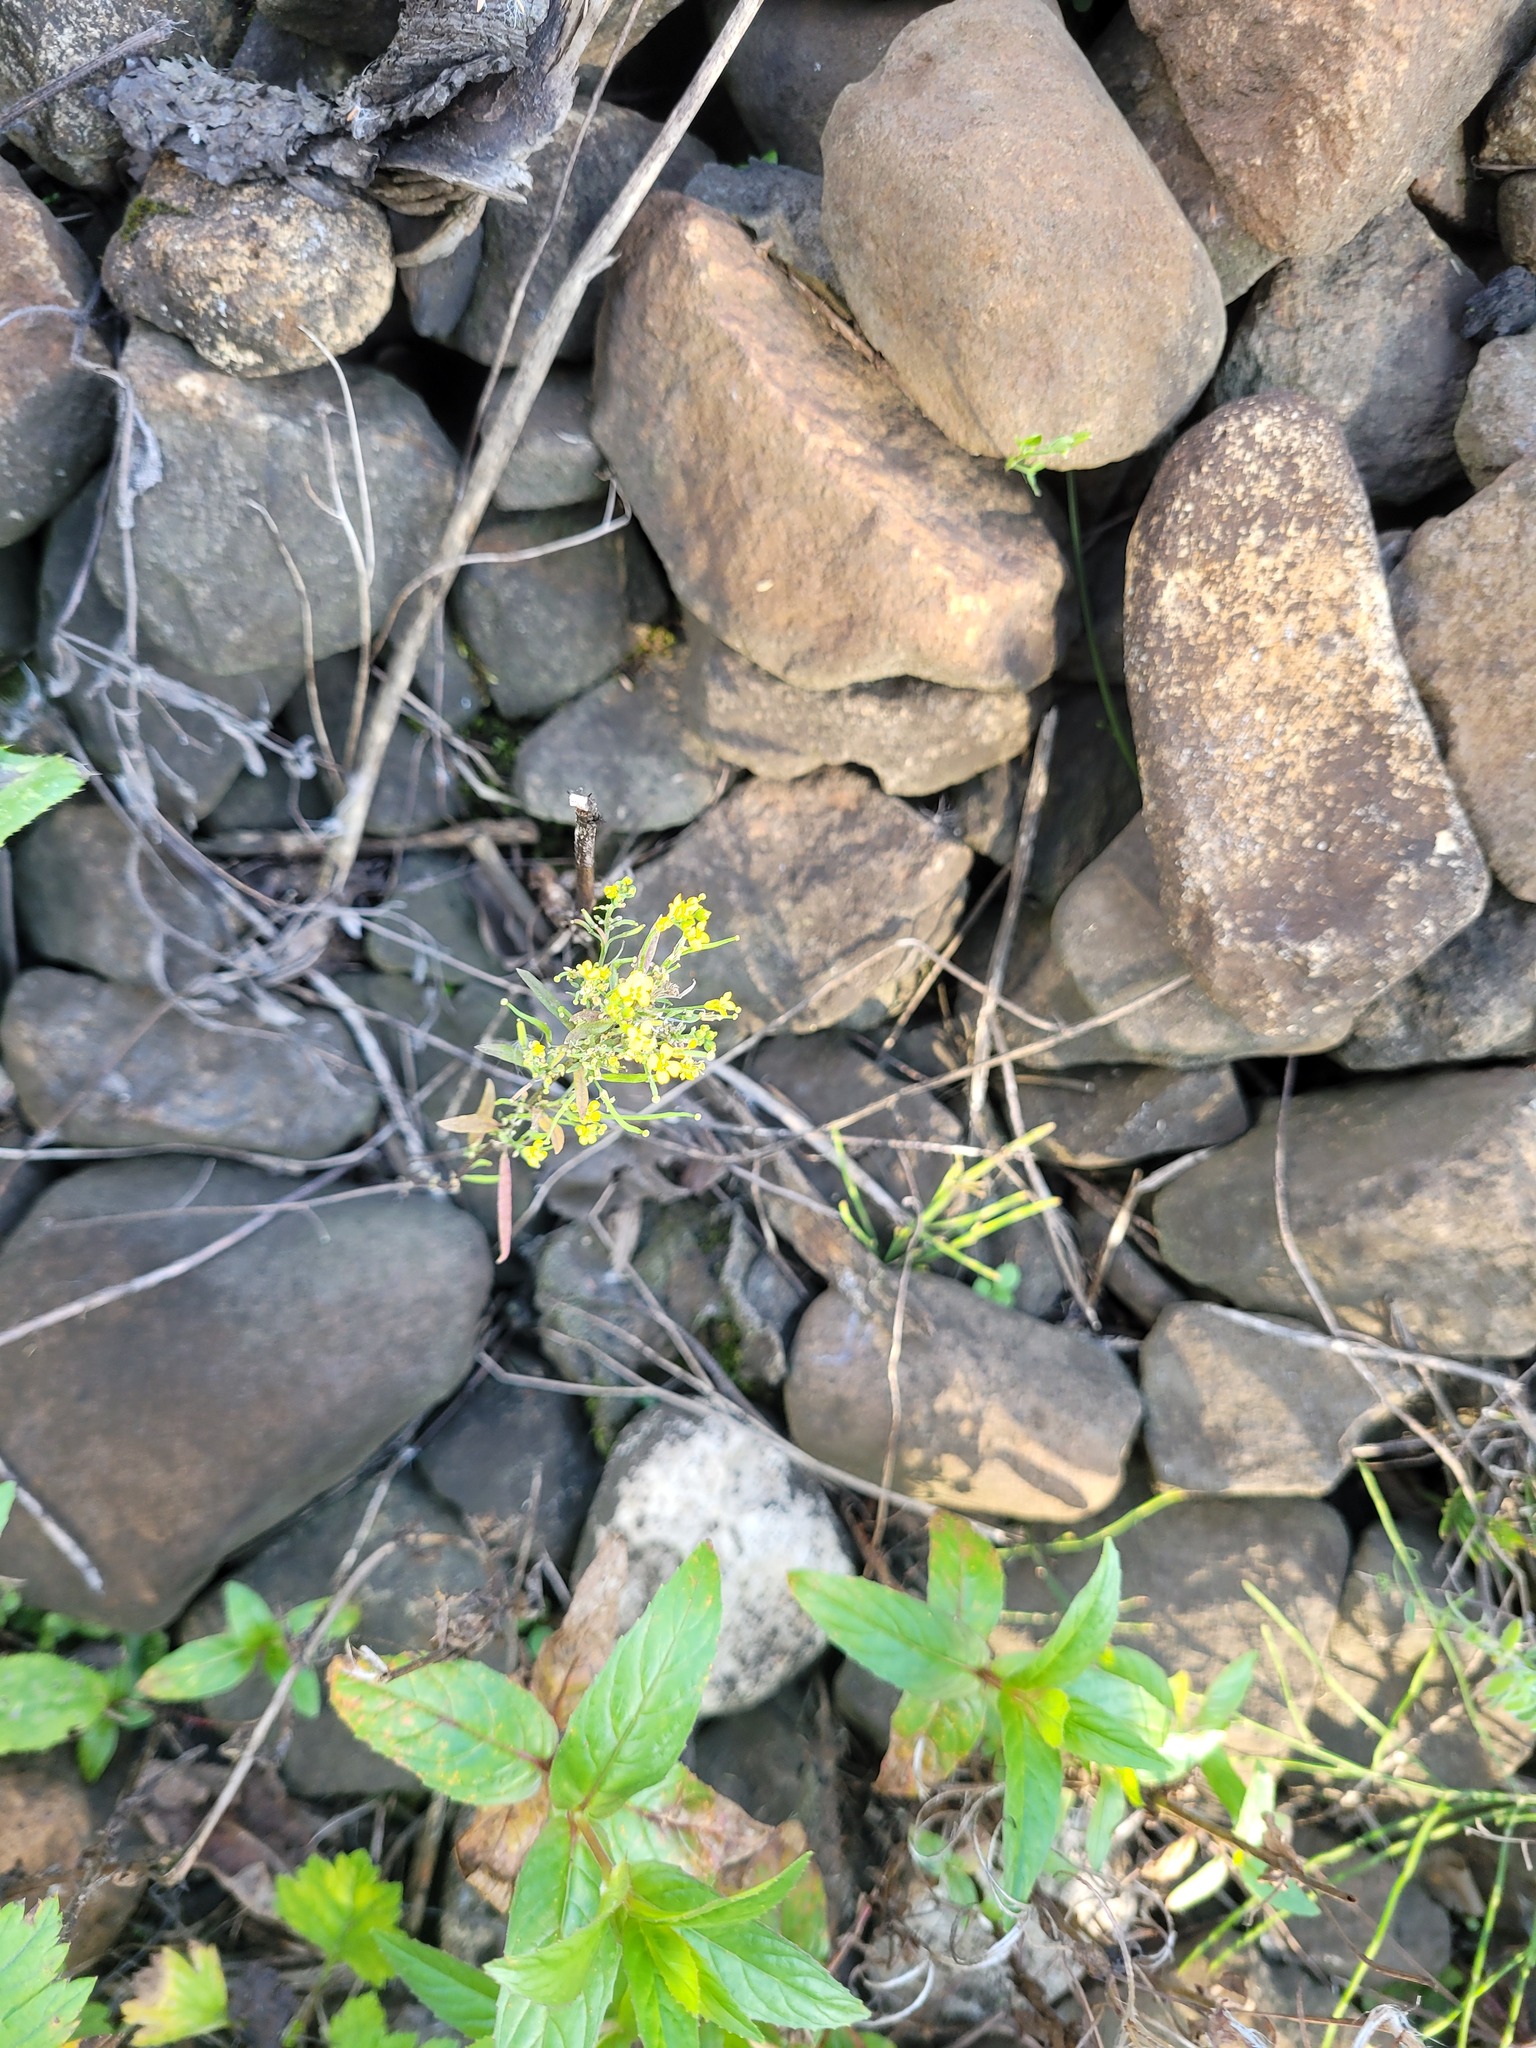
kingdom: Plantae
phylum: Tracheophyta
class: Magnoliopsida
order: Brassicales
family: Brassicaceae
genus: Erysimum
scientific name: Erysimum cheiranthoides
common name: Treacle mustard
